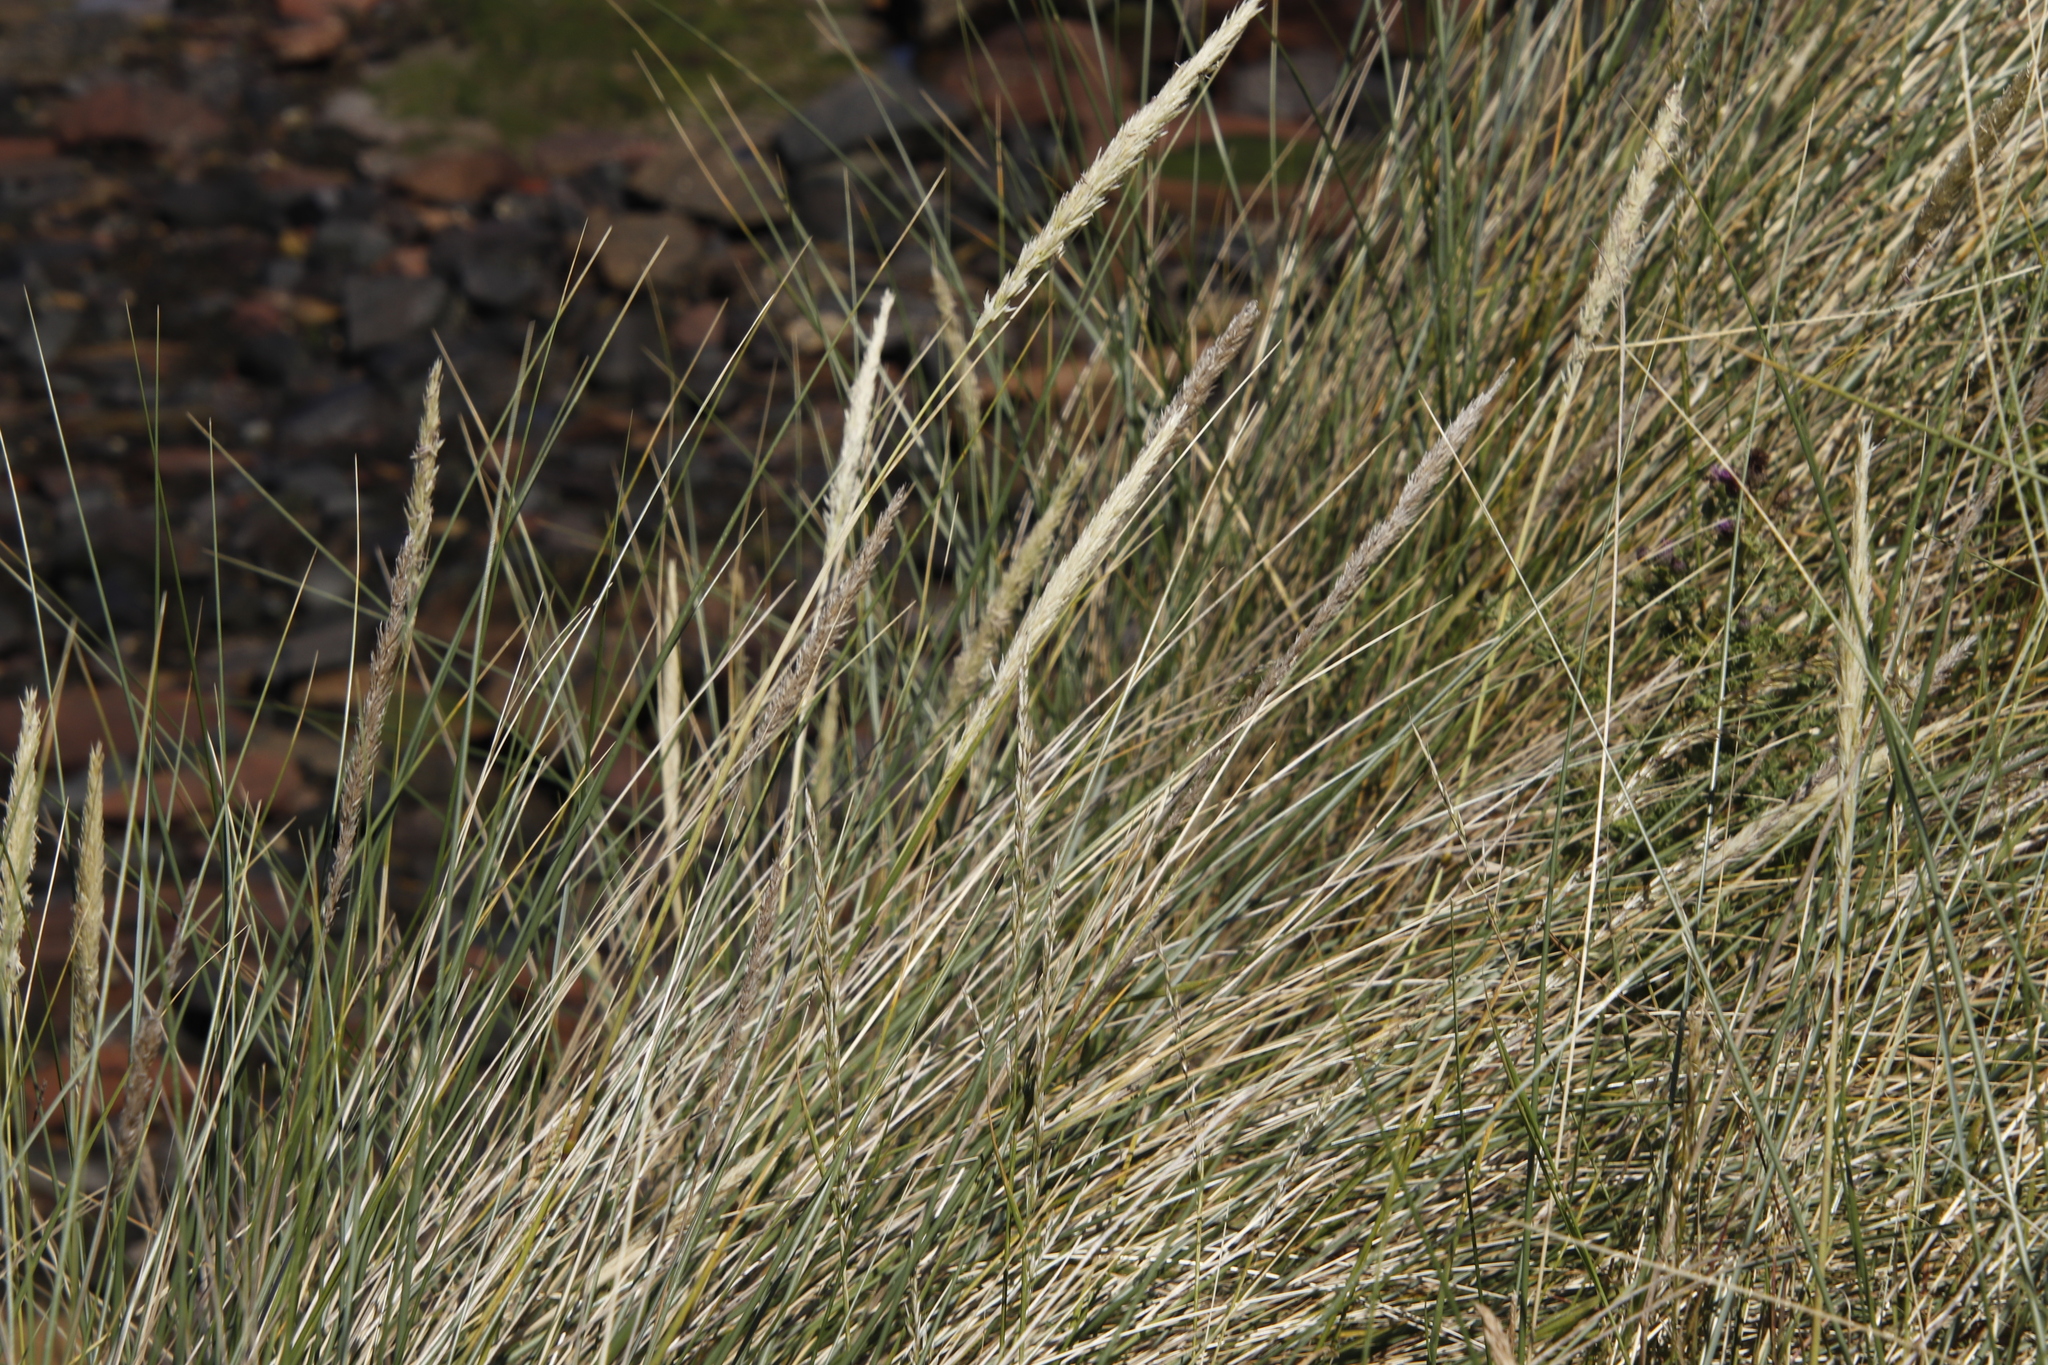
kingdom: Plantae
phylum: Tracheophyta
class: Liliopsida
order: Poales
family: Poaceae
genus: Calamagrostis
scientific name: Calamagrostis arenaria
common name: European beachgrass
